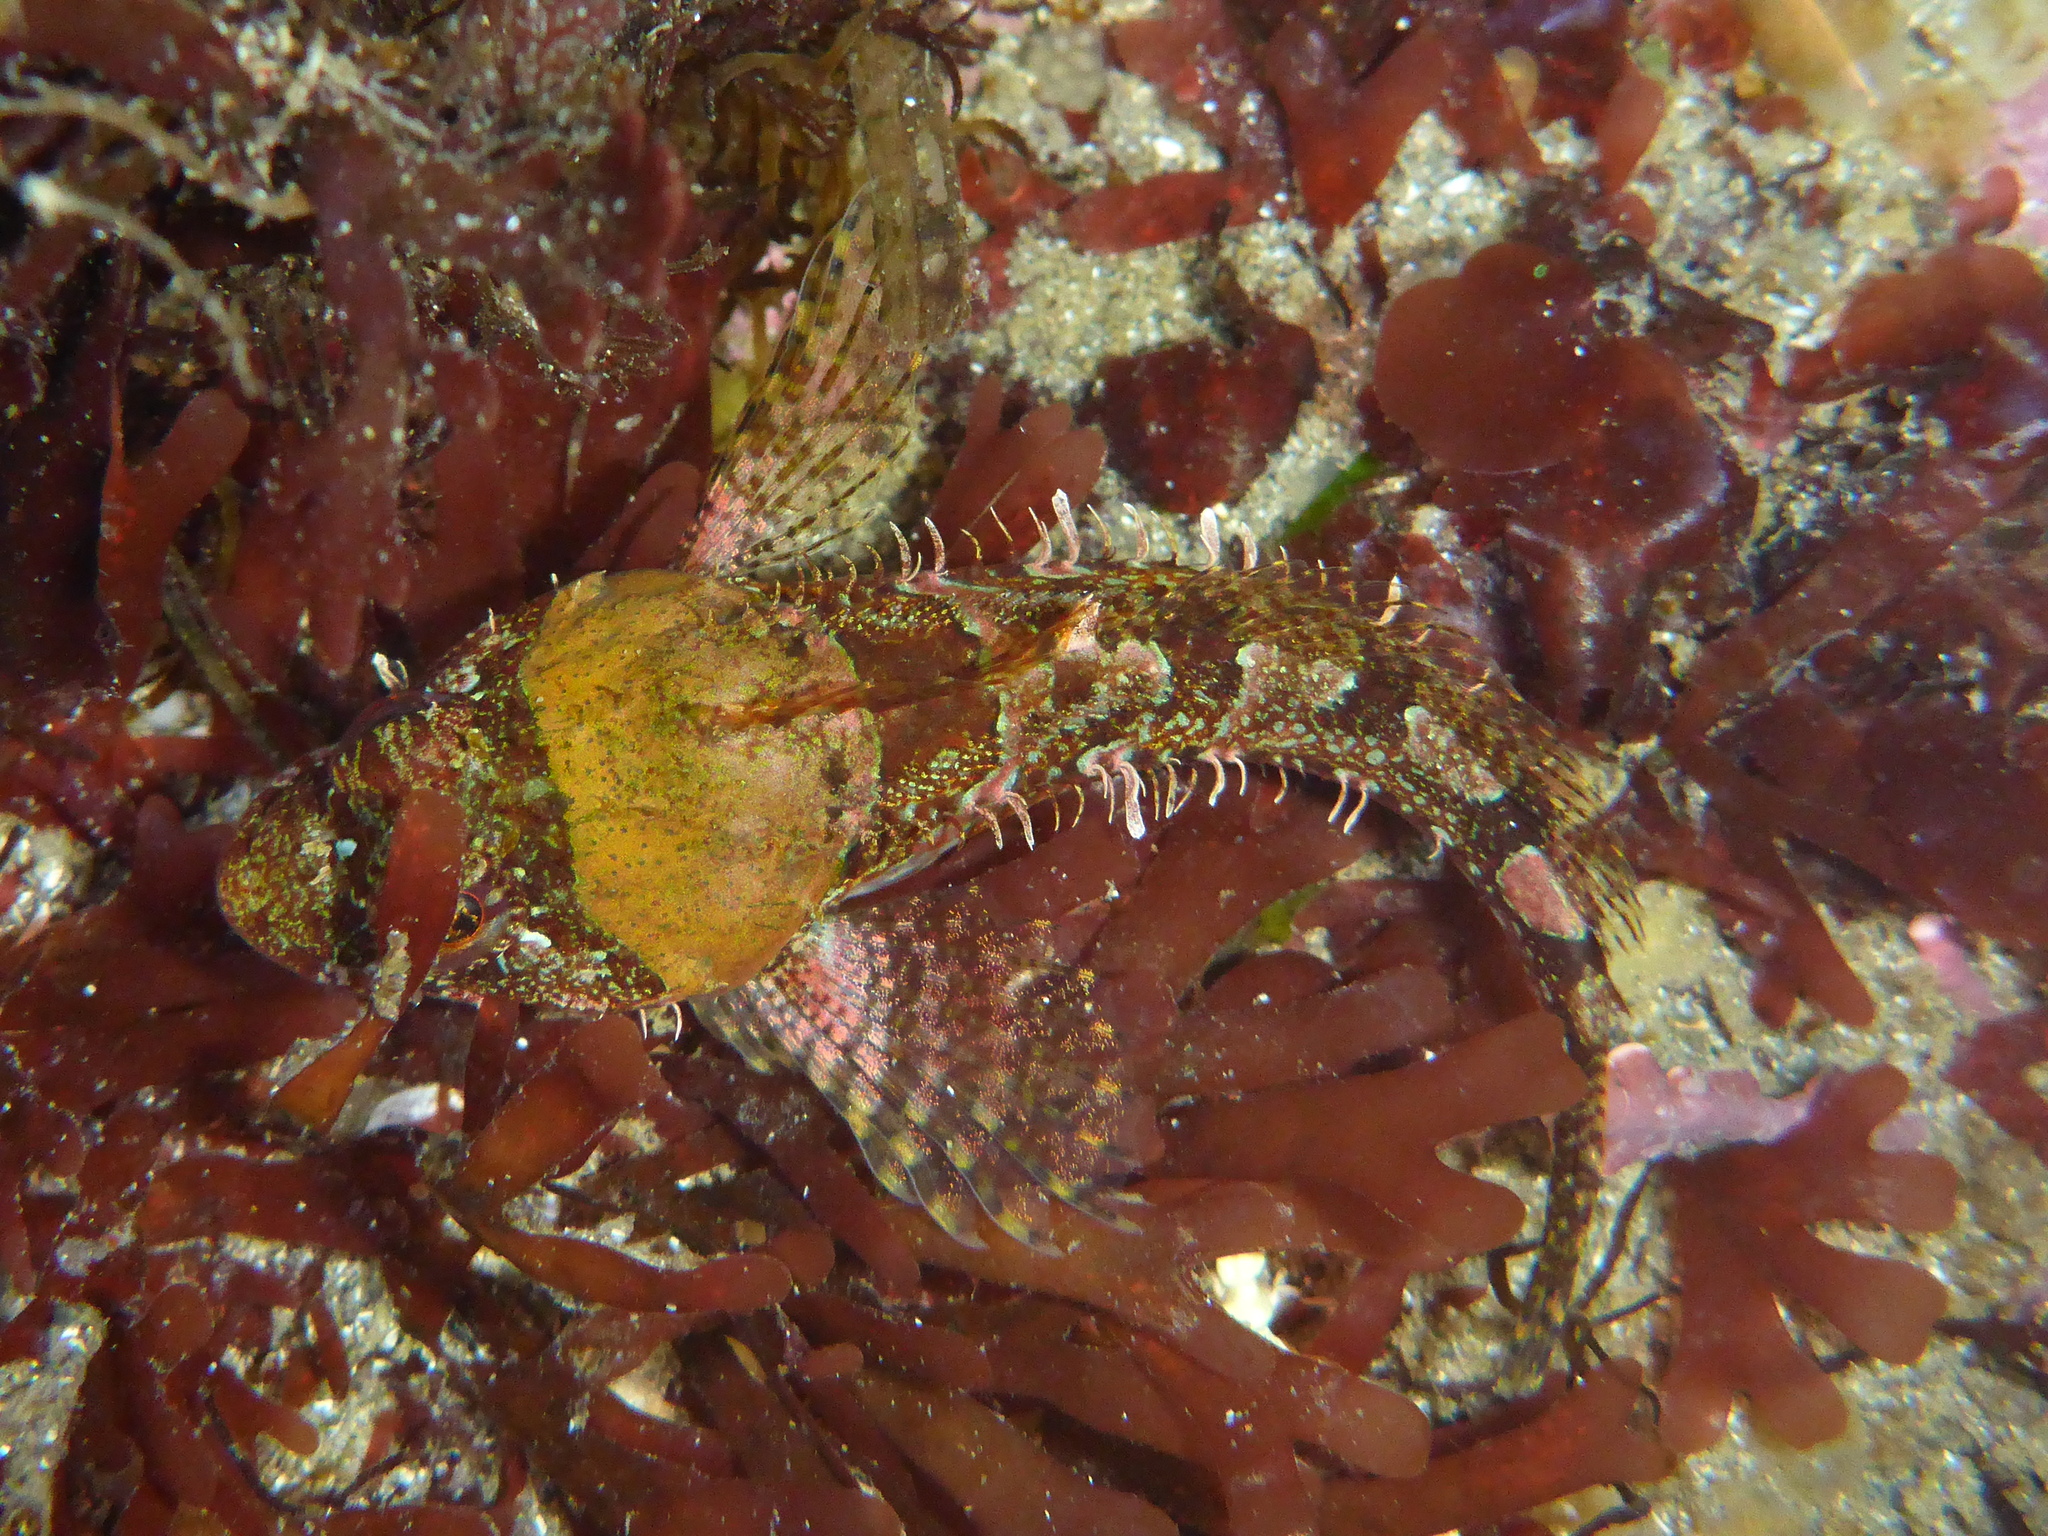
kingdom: Animalia
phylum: Chordata
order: Scorpaeniformes
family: Cottidae
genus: Artedius
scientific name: Artedius lateralis
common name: Smooth-head sculpin
